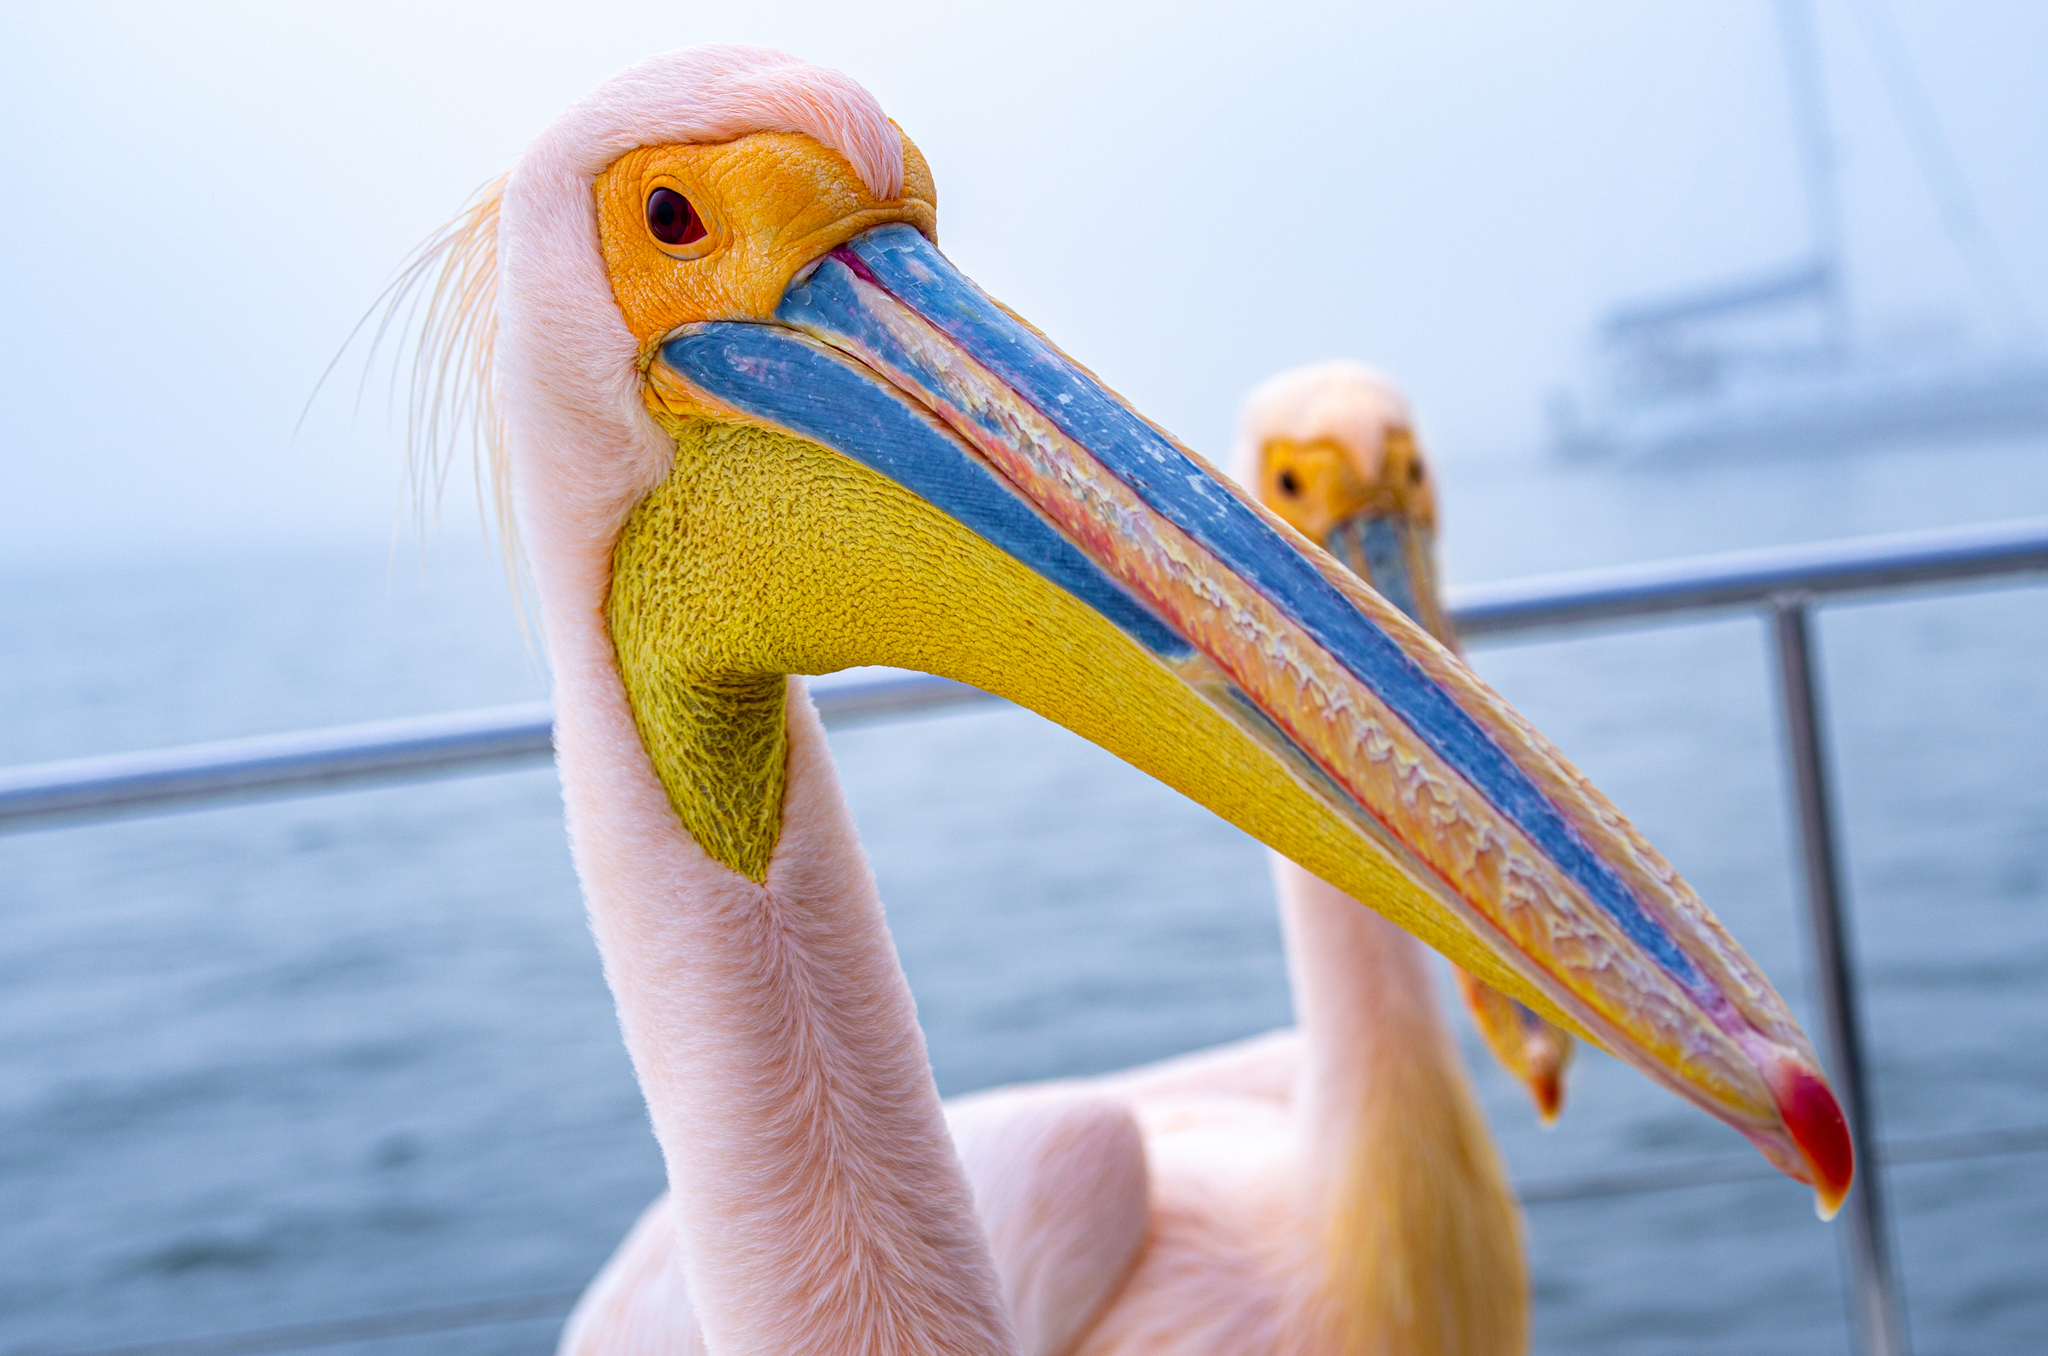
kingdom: Animalia
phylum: Chordata
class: Aves
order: Pelecaniformes
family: Pelecanidae
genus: Pelecanus
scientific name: Pelecanus onocrotalus
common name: Great white pelican
